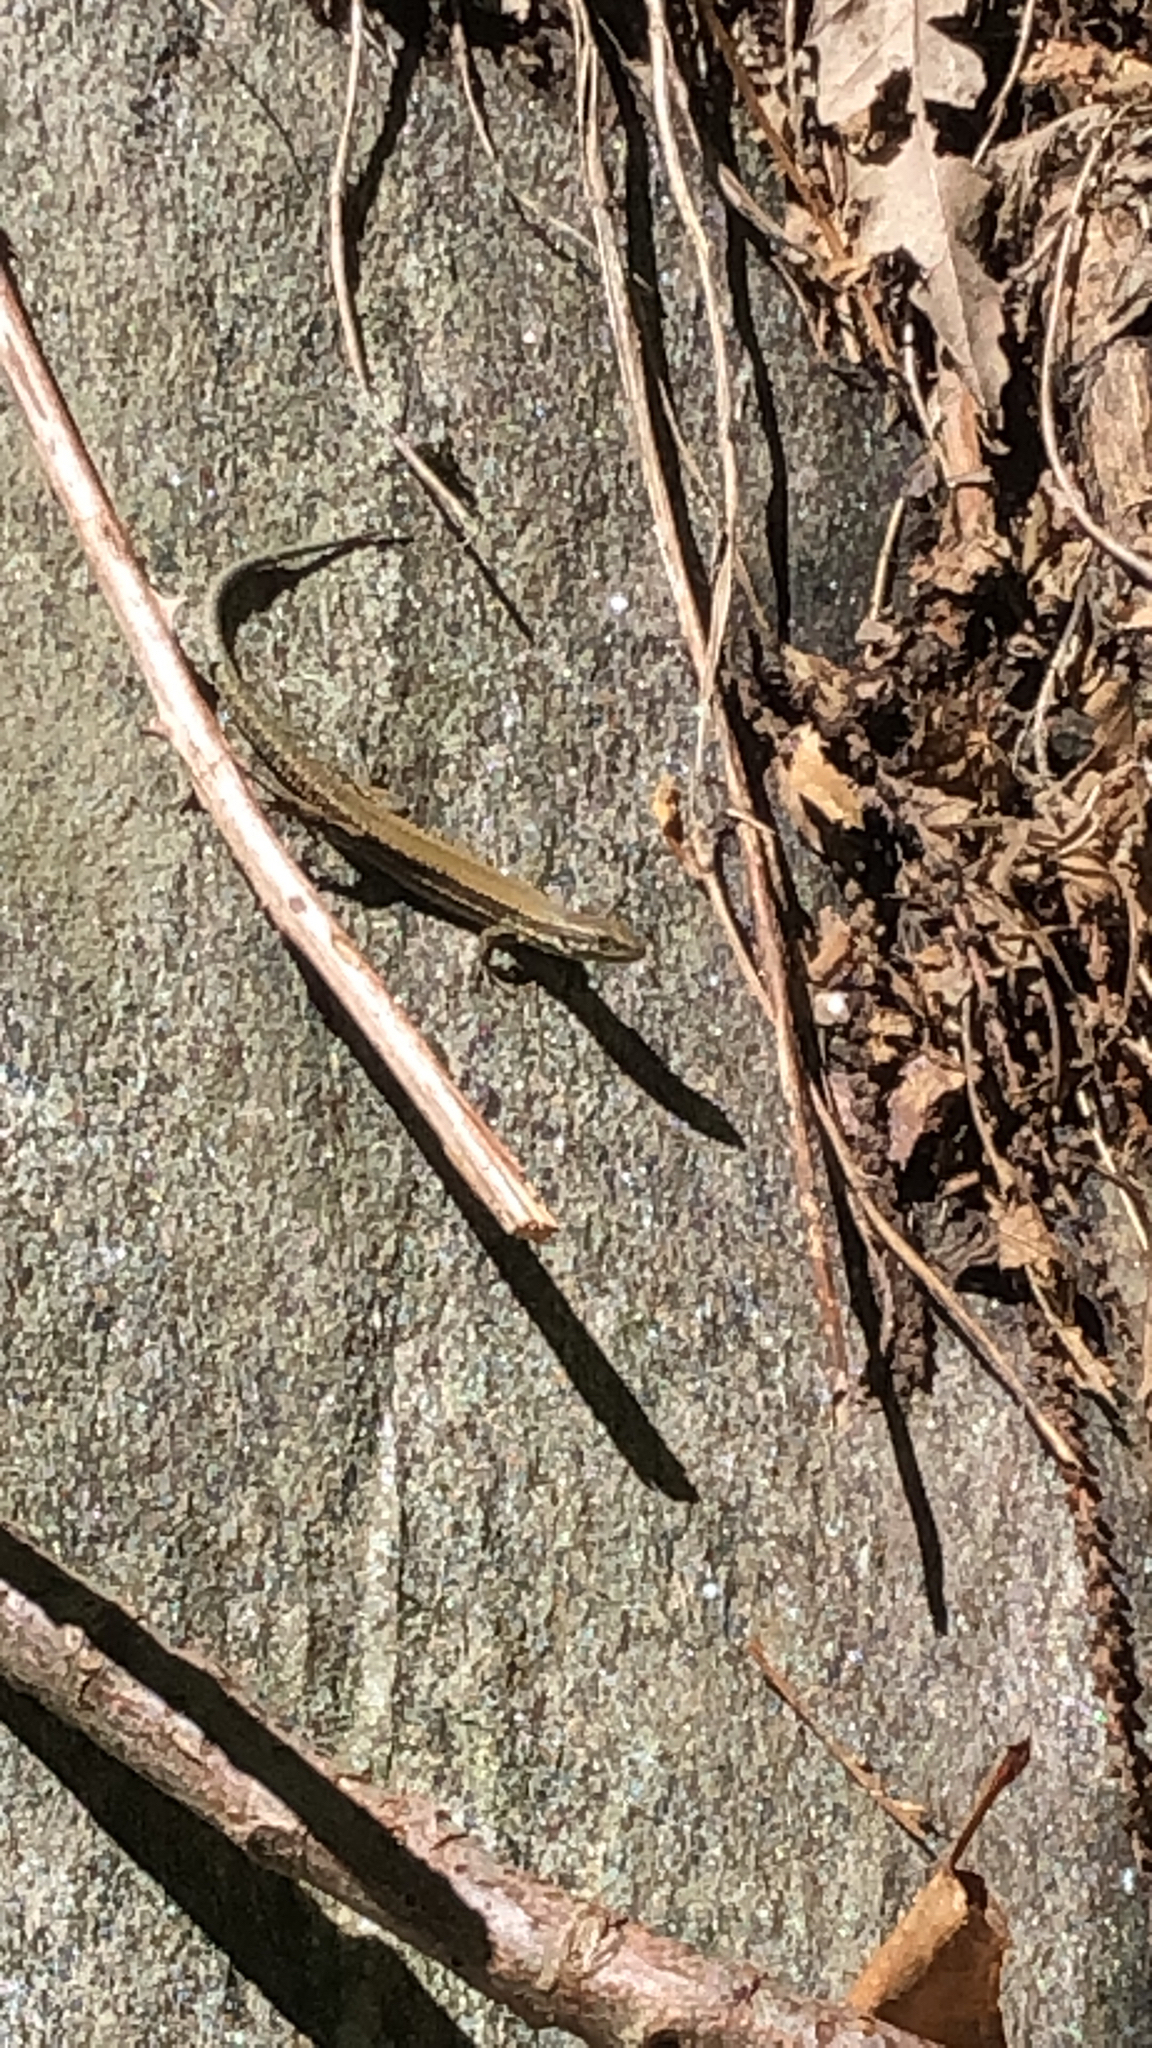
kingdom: Animalia
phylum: Chordata
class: Squamata
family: Lacertidae
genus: Podarcis
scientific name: Podarcis muralis
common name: Common wall lizard
